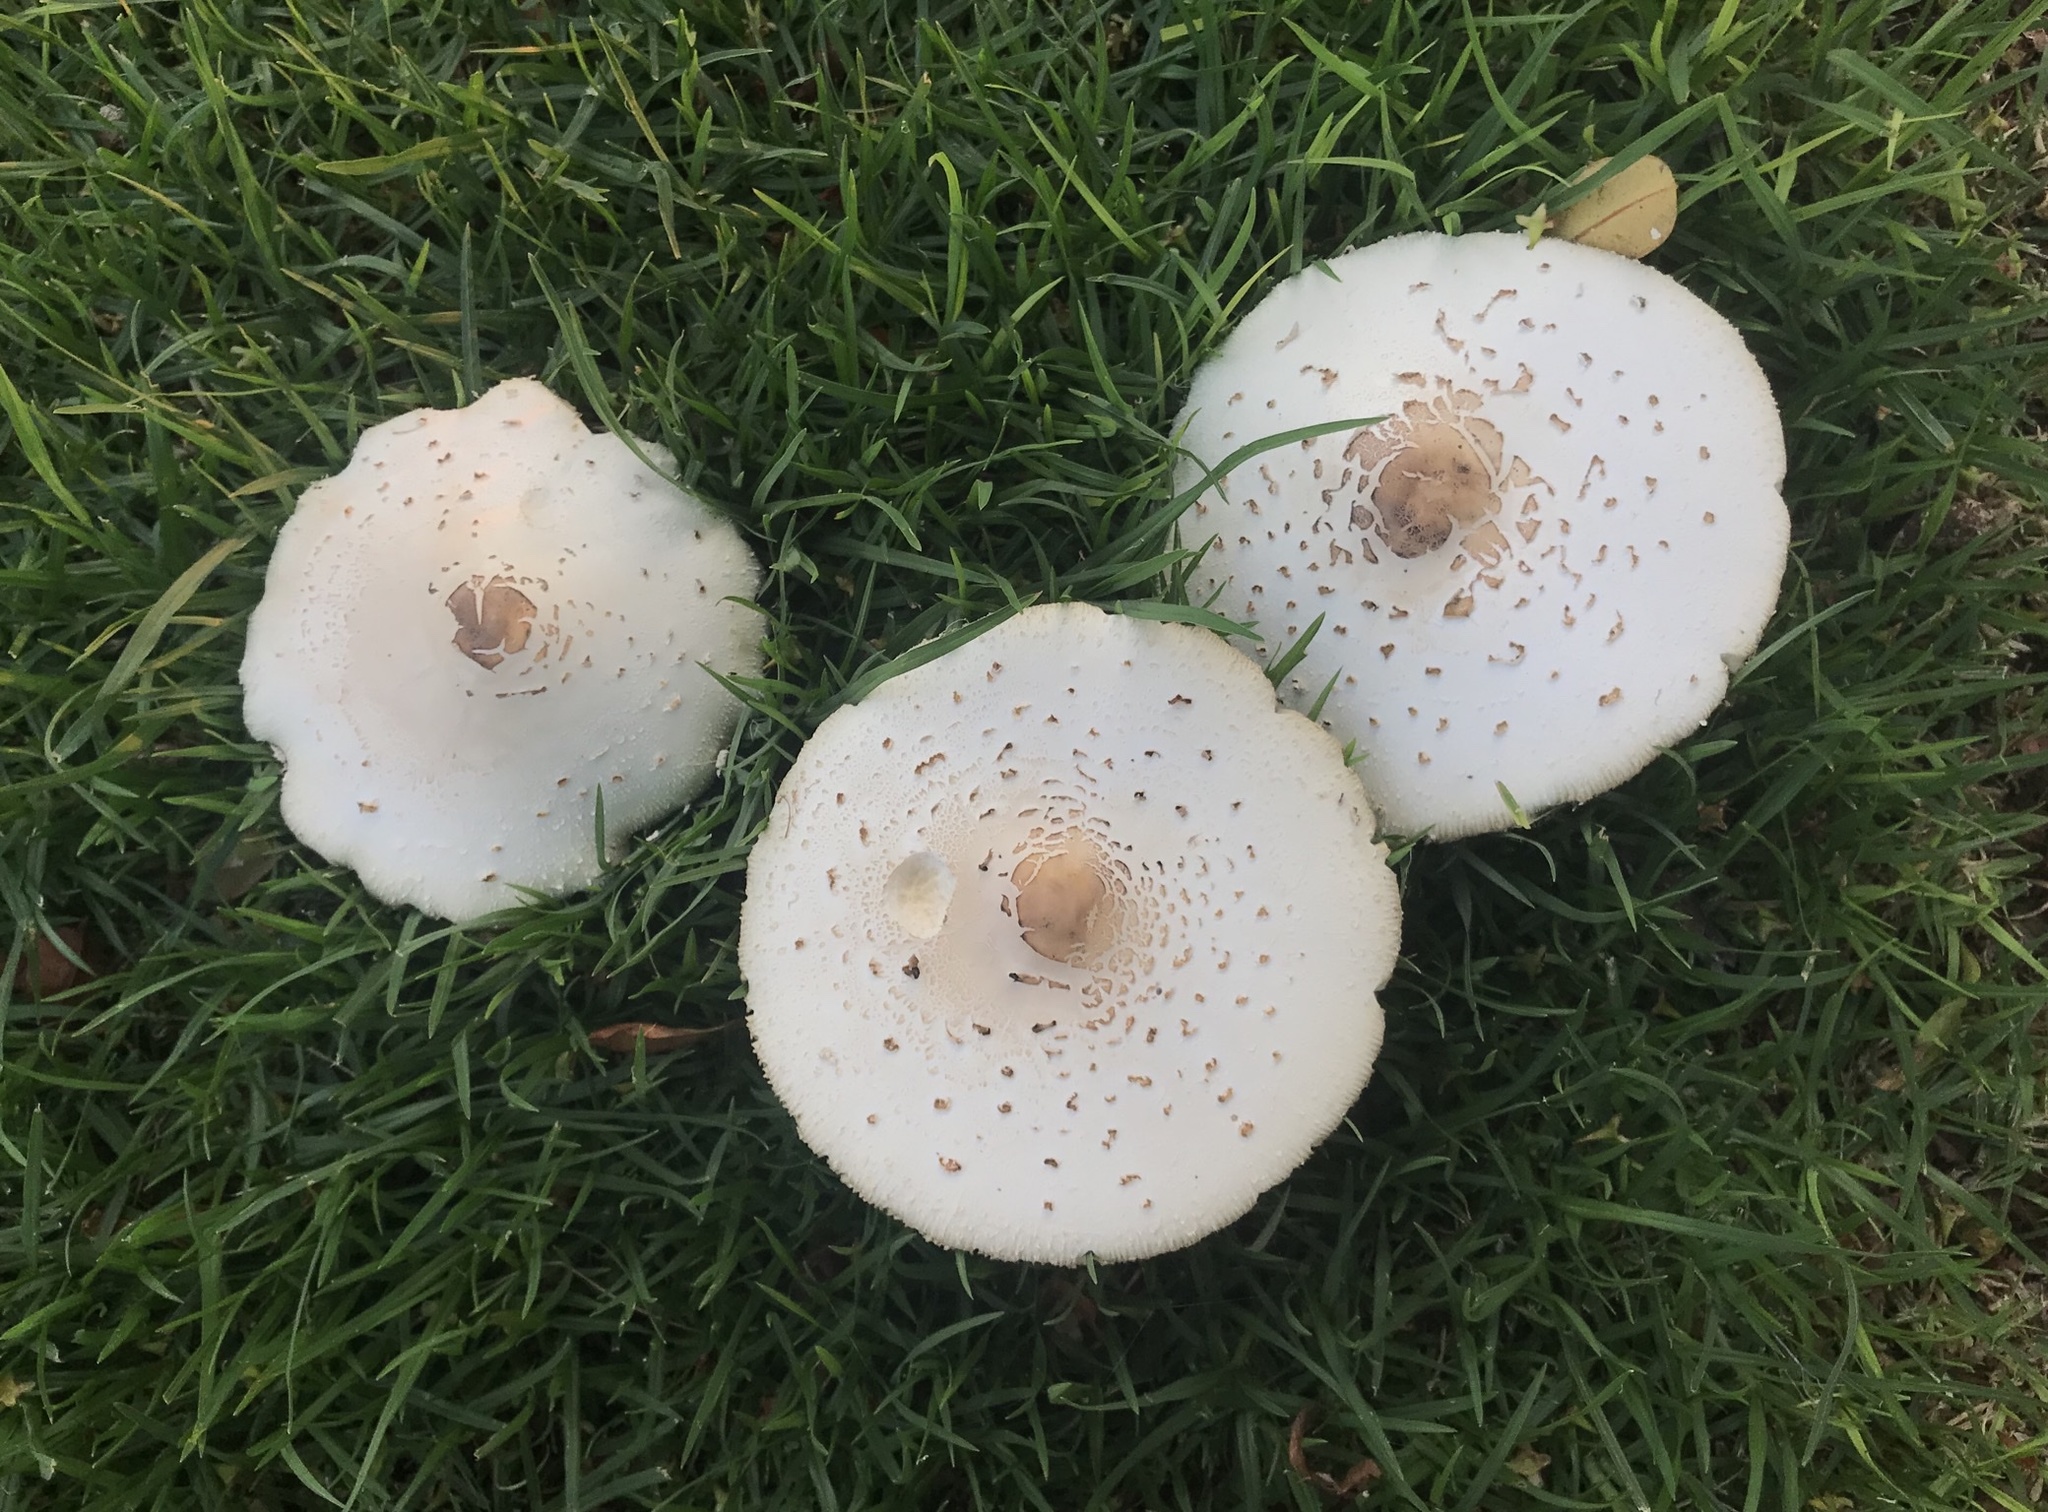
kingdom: Fungi
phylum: Basidiomycota
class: Agaricomycetes
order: Agaricales
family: Agaricaceae
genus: Chlorophyllum
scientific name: Chlorophyllum molybdites
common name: False parasol
